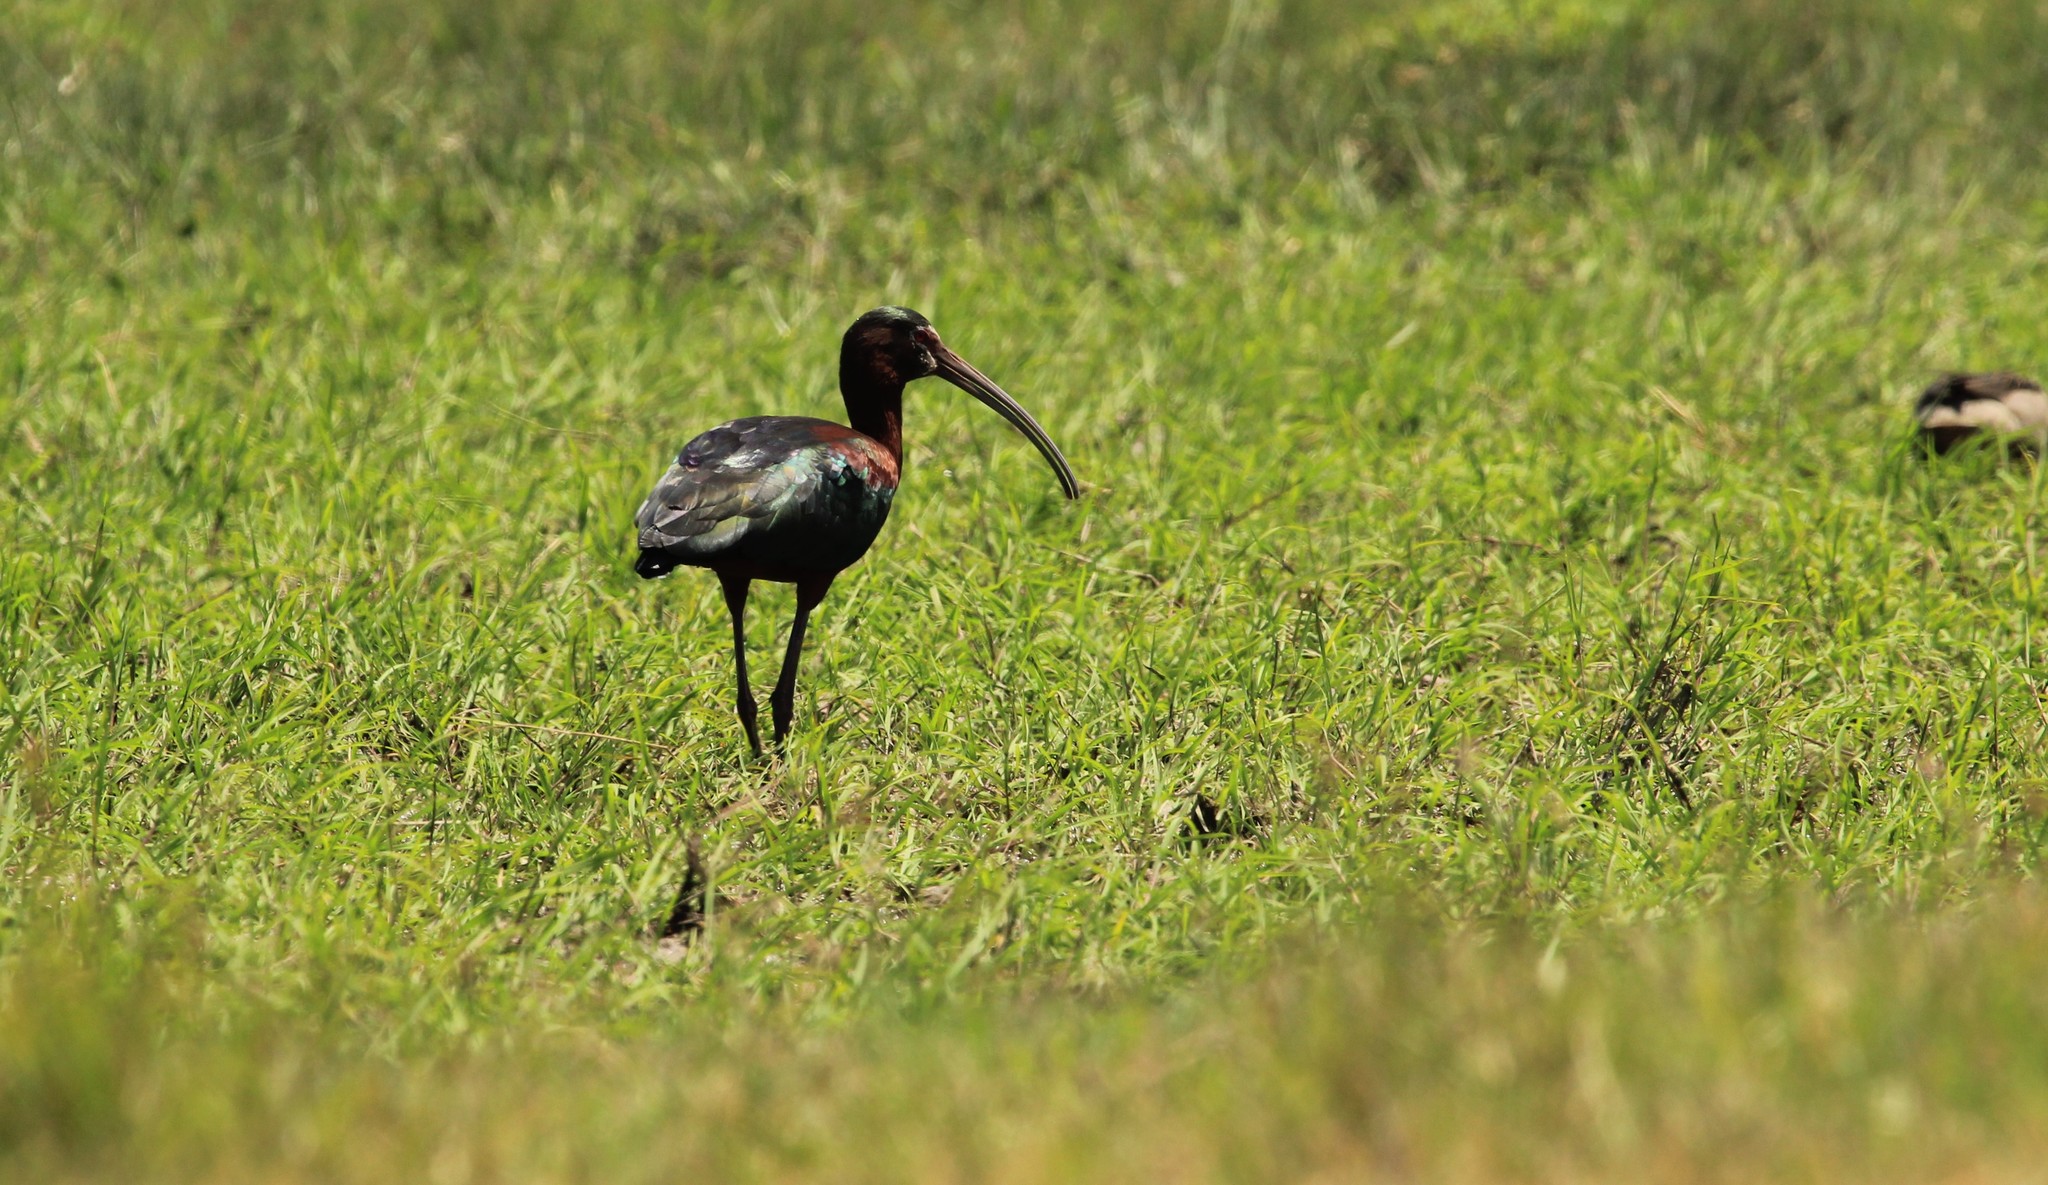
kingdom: Animalia
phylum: Chordata
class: Aves
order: Pelecaniformes
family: Threskiornithidae
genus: Plegadis
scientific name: Plegadis chihi
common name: White-faced ibis
